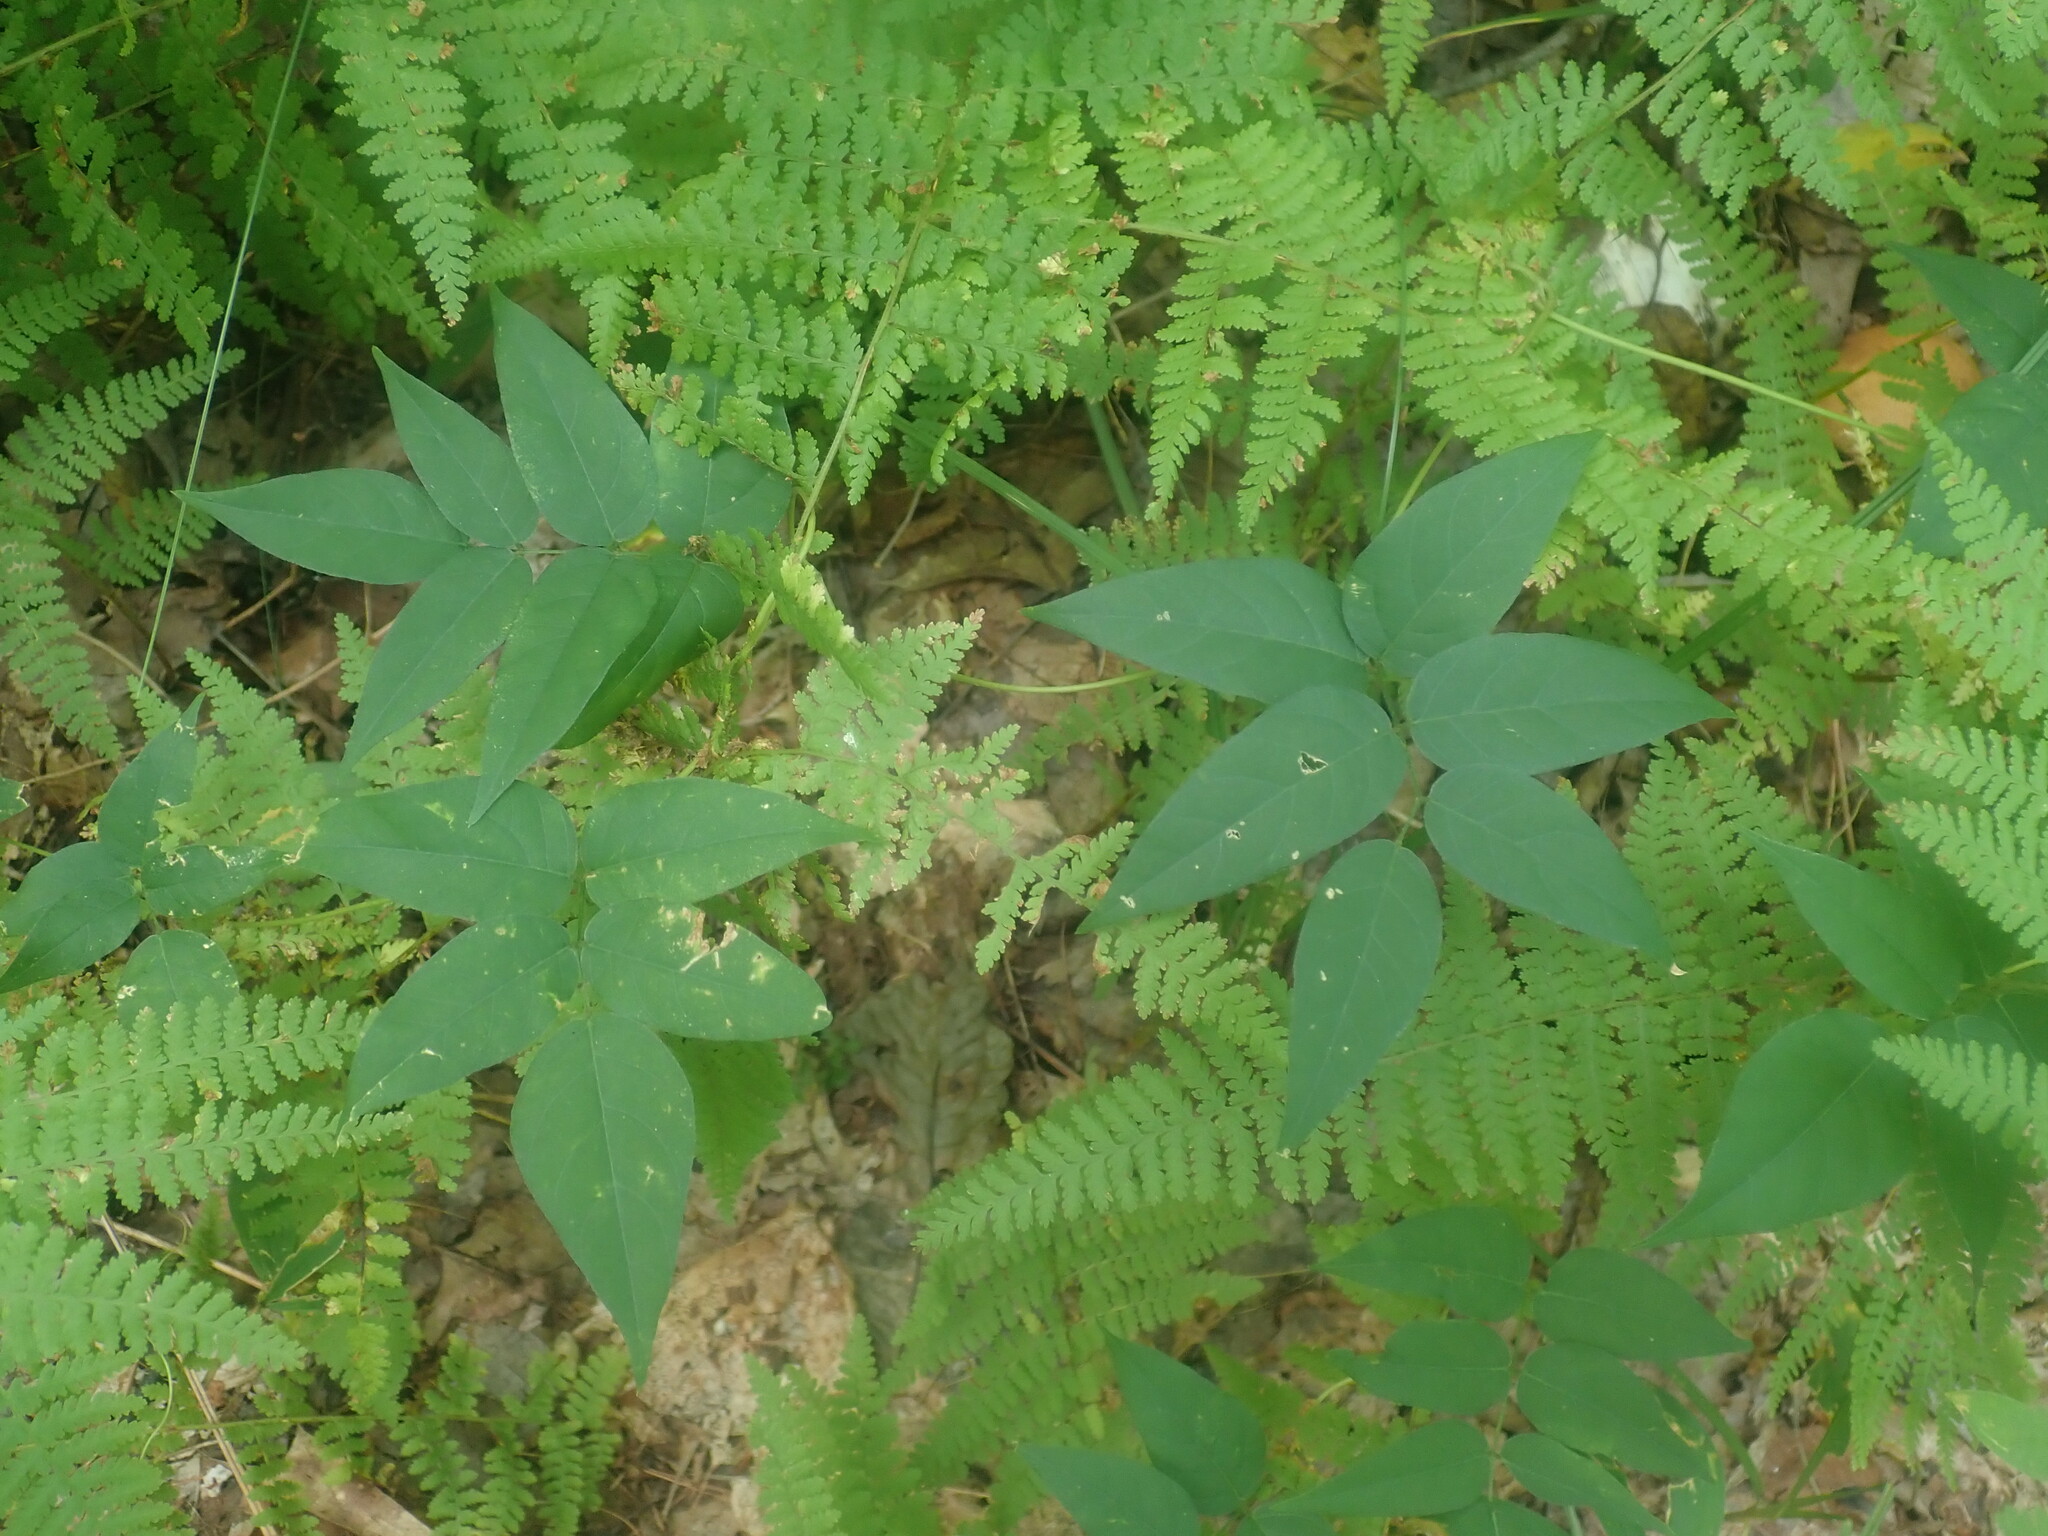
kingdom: Plantae
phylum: Tracheophyta
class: Magnoliopsida
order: Fabales
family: Fabaceae
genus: Apios
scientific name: Apios americana
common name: American potato-bean
